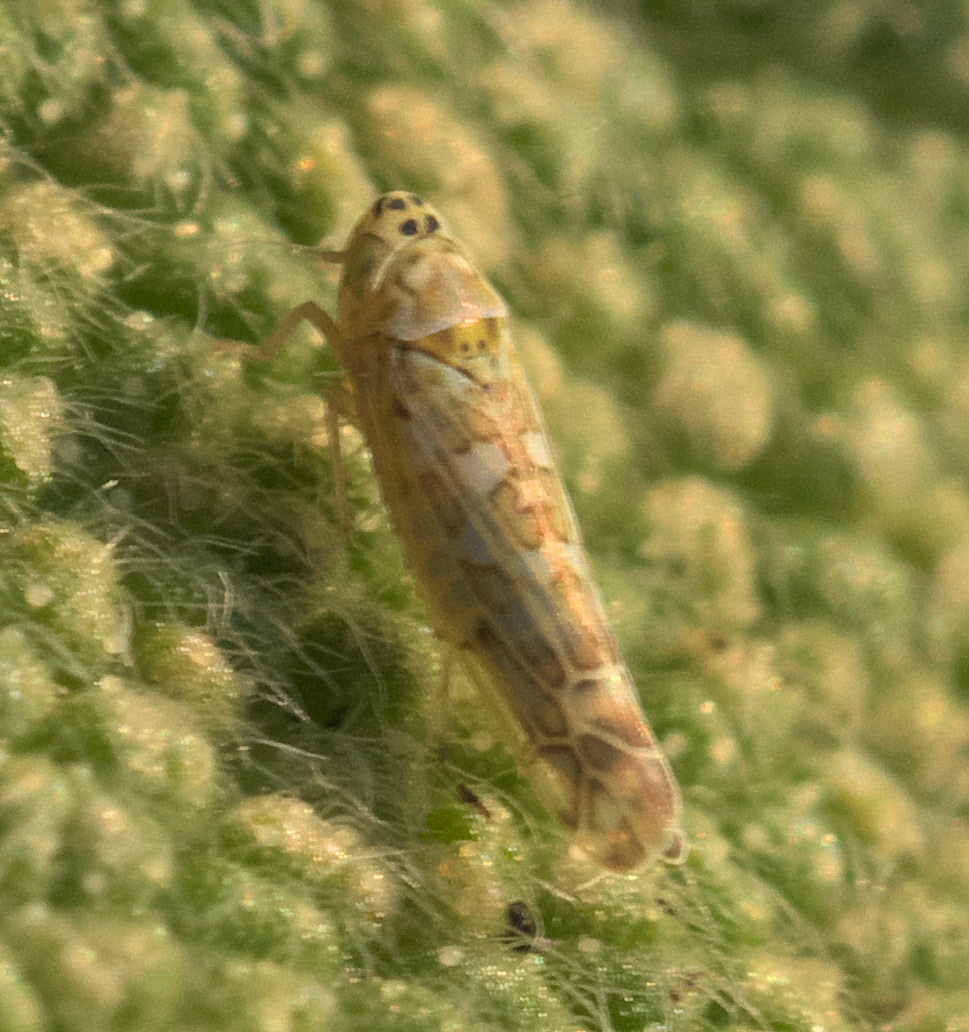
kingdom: Animalia
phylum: Arthropoda
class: Insecta
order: Hemiptera
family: Cicadellidae
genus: Eupteryx
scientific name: Eupteryx decemnotata
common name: Ligurian leafhopper
